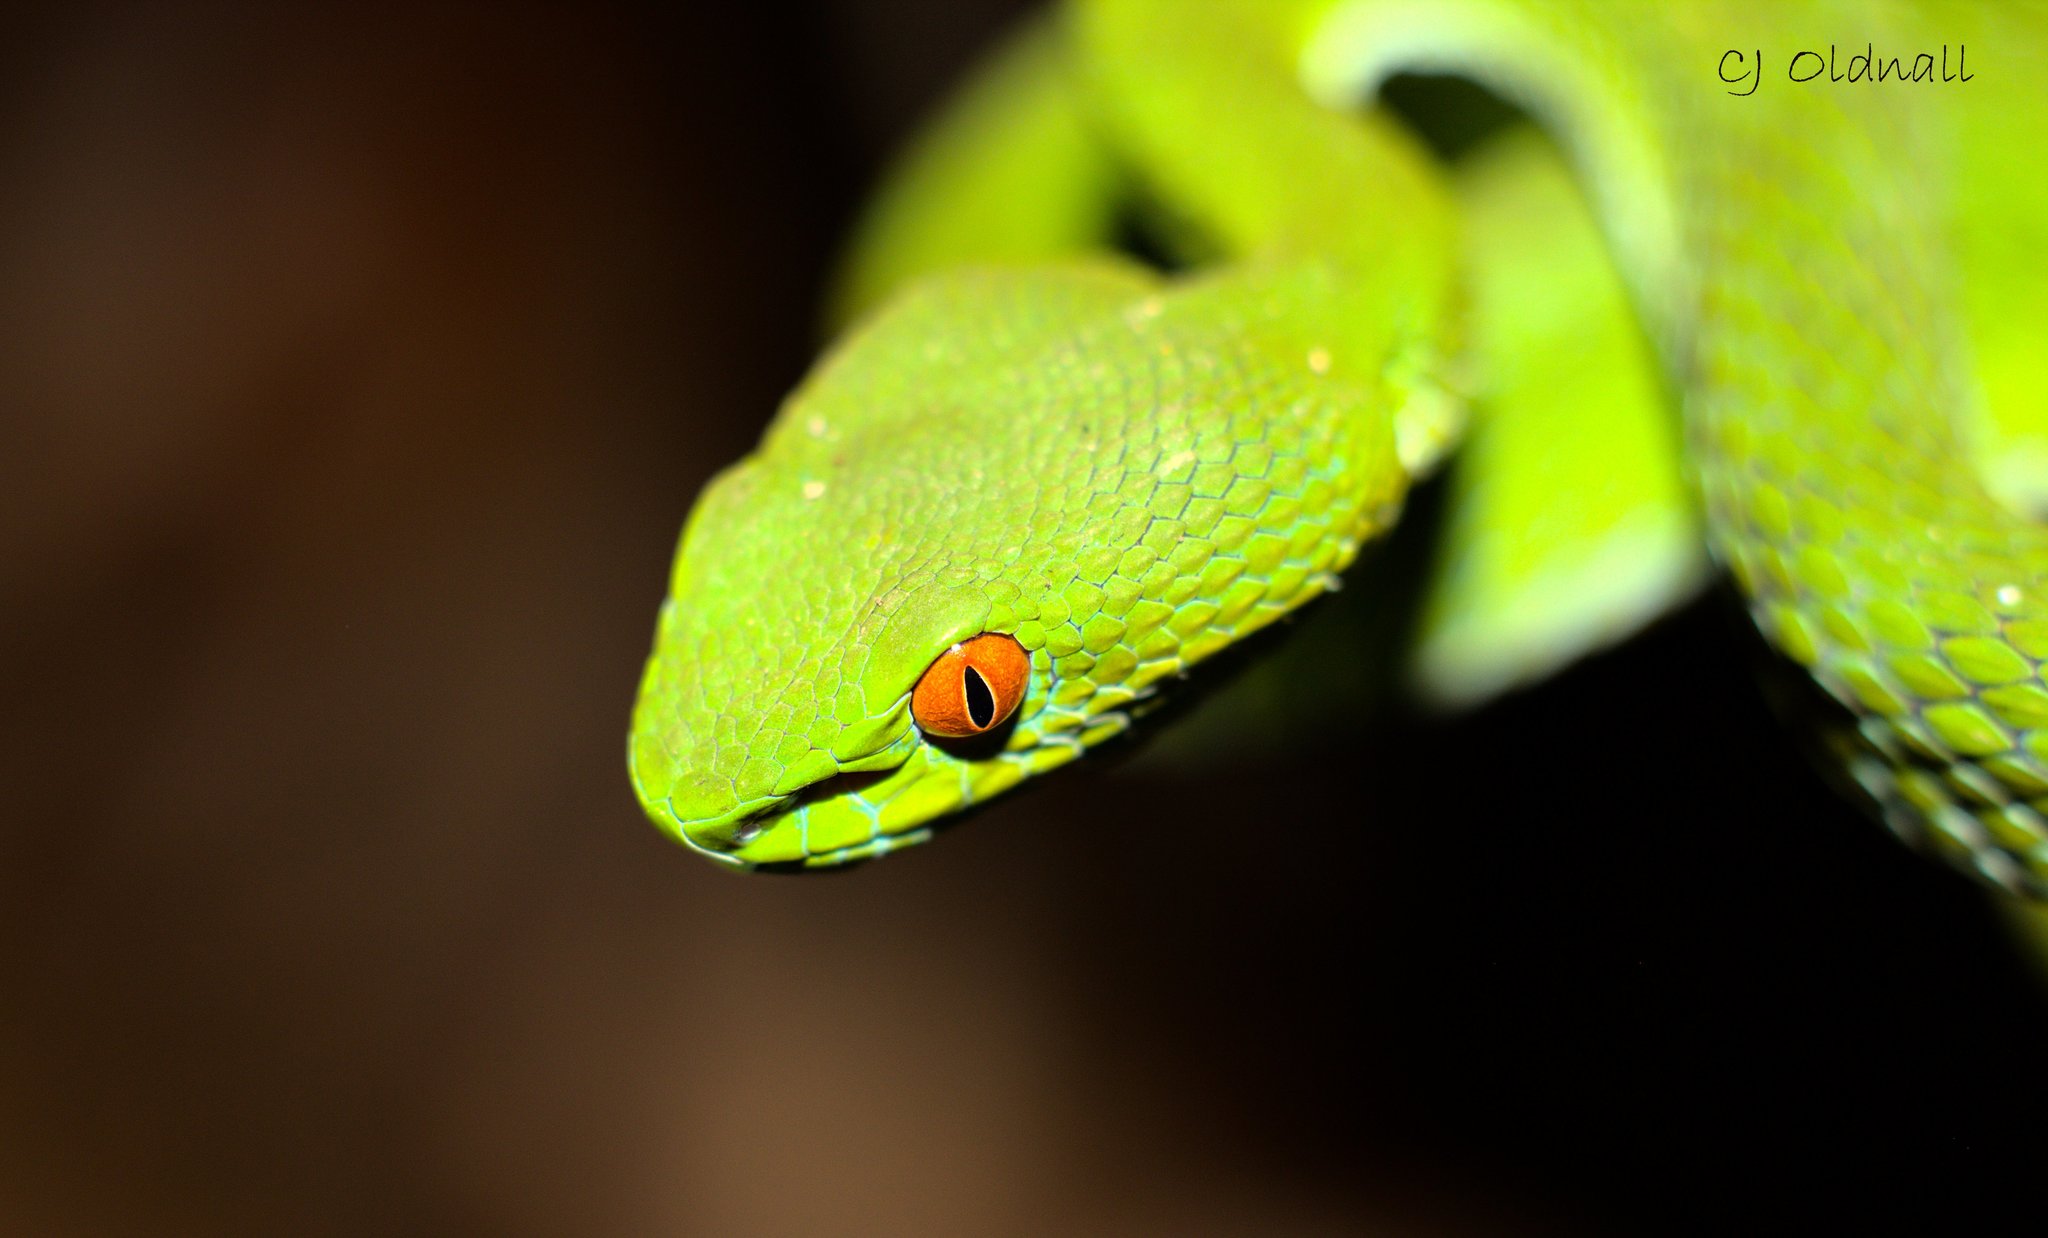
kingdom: Animalia
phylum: Chordata
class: Squamata
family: Viperidae
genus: Craspedocephalus
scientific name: Craspedocephalus rubeus
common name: Ruby-eyed green pitviper
